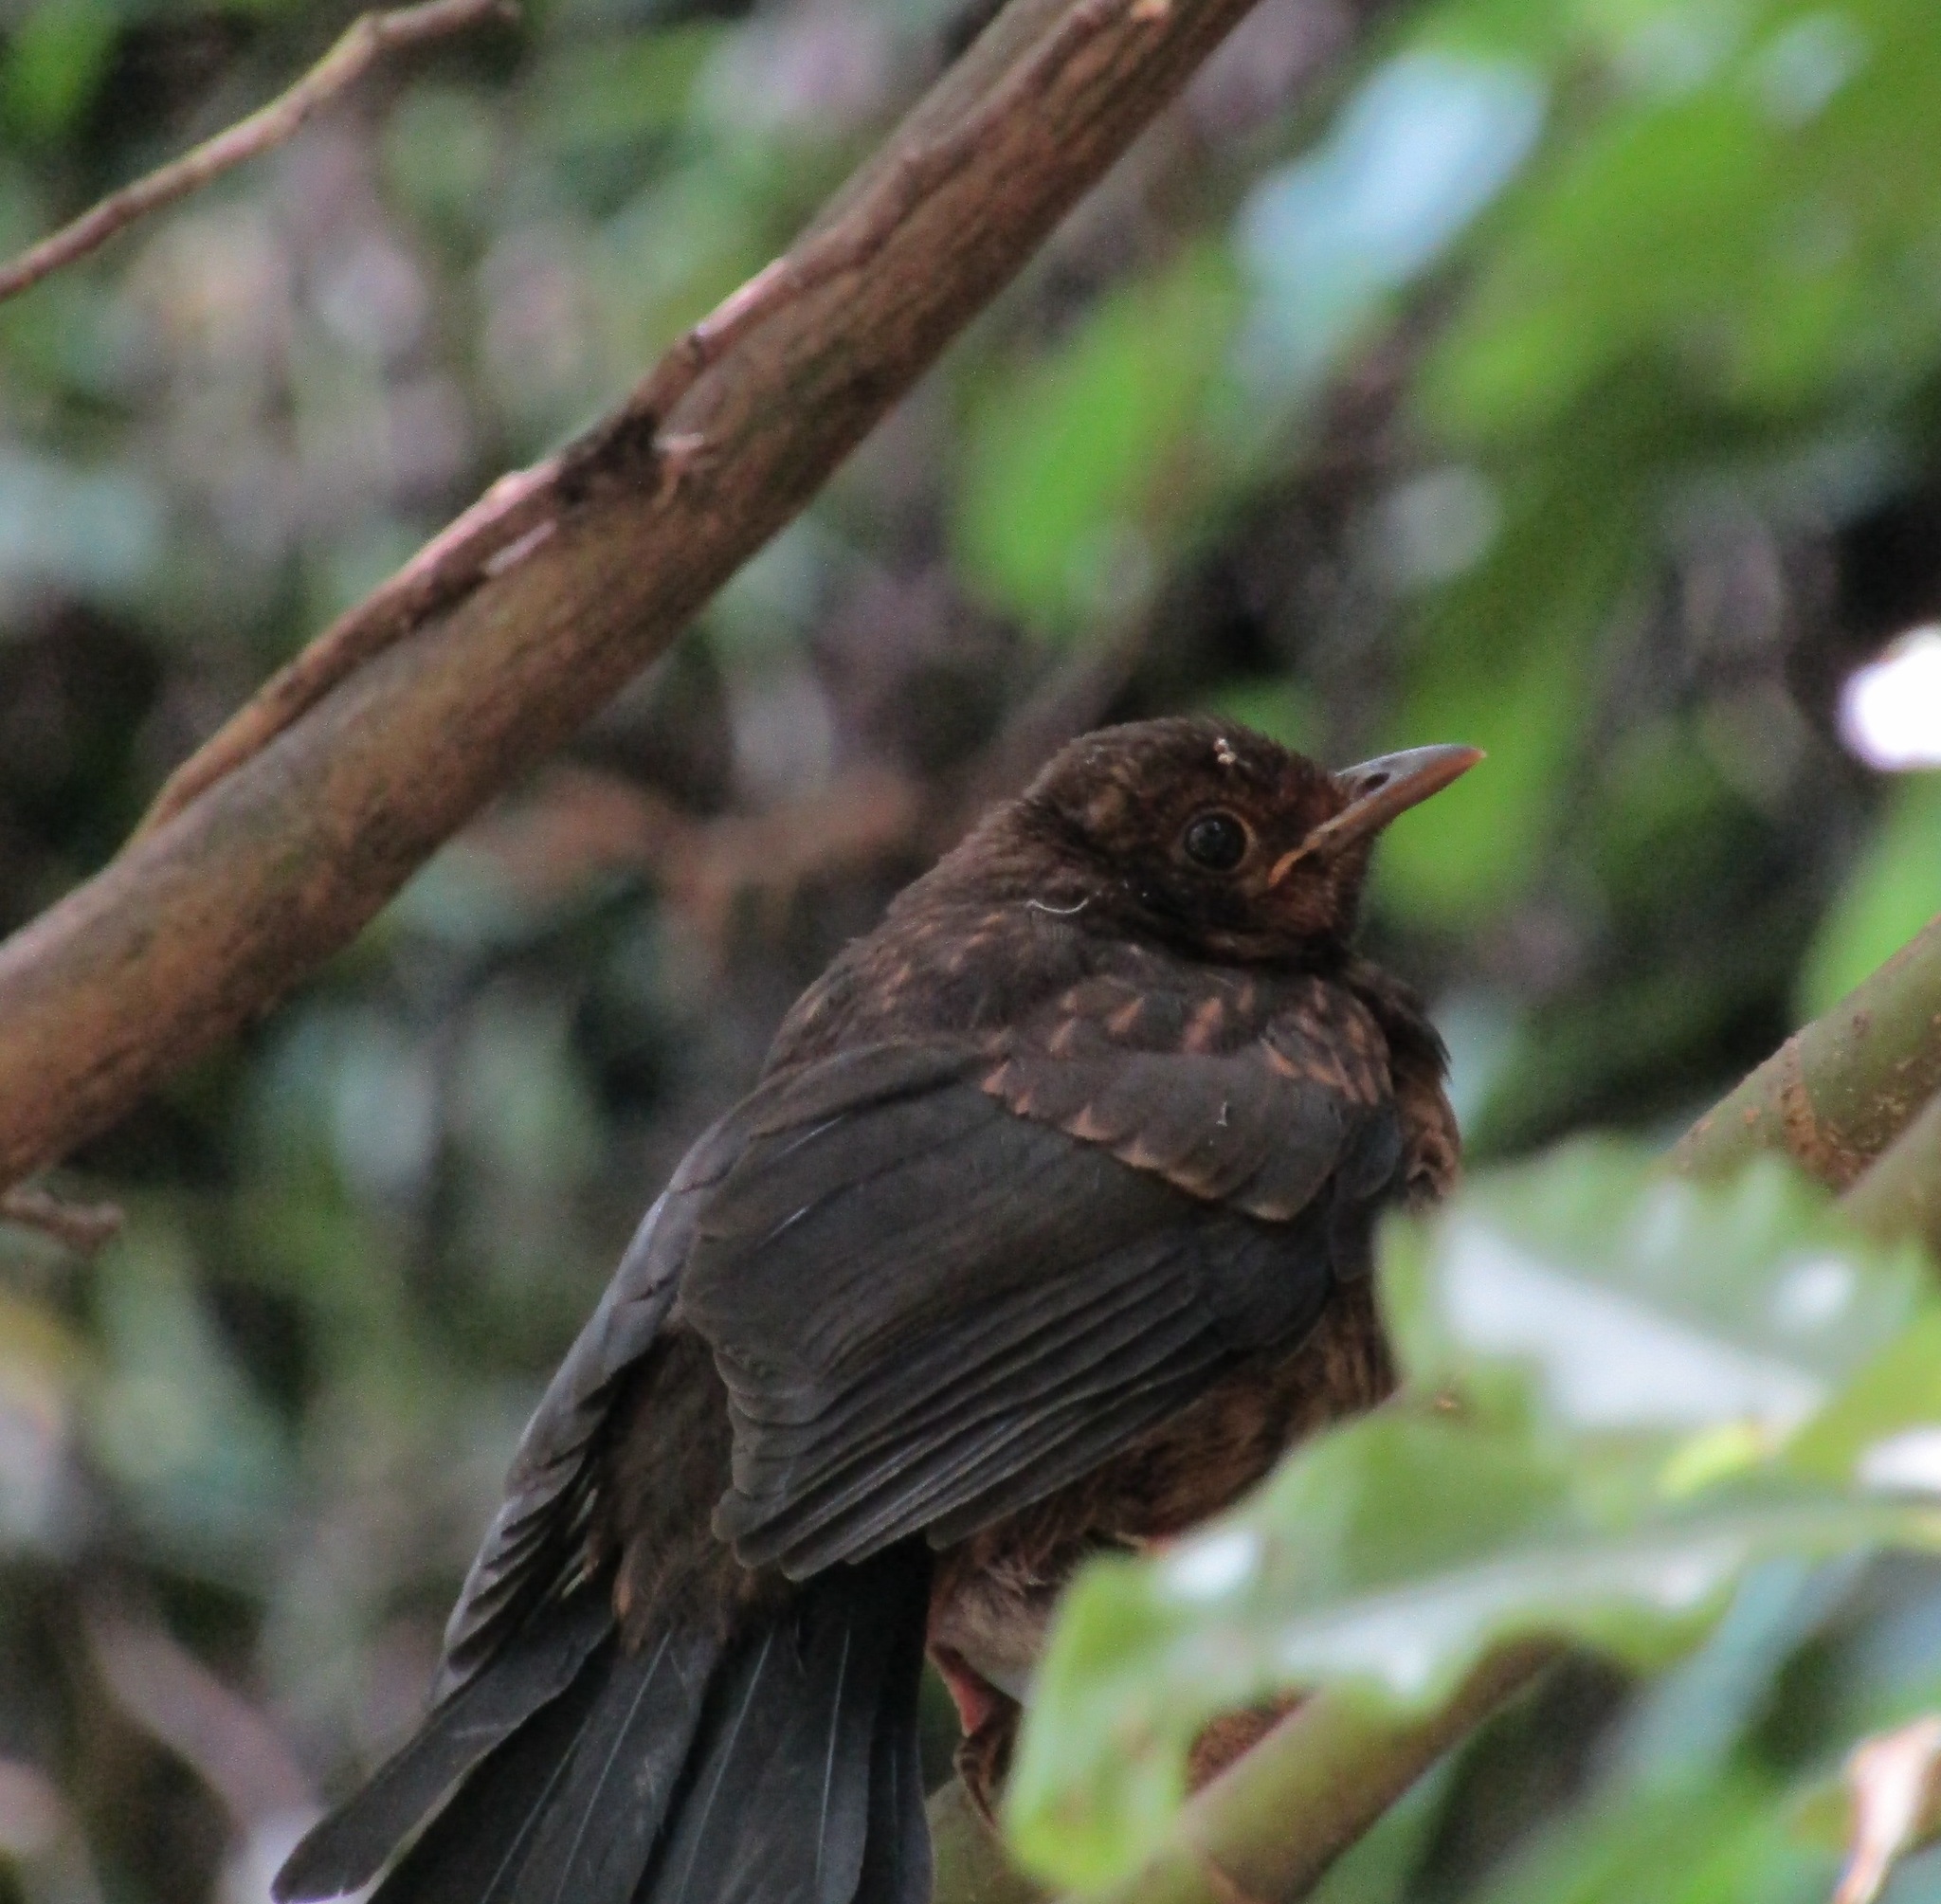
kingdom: Animalia
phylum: Chordata
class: Aves
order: Passeriformes
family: Turdidae
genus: Turdus
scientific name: Turdus merula
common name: Common blackbird
